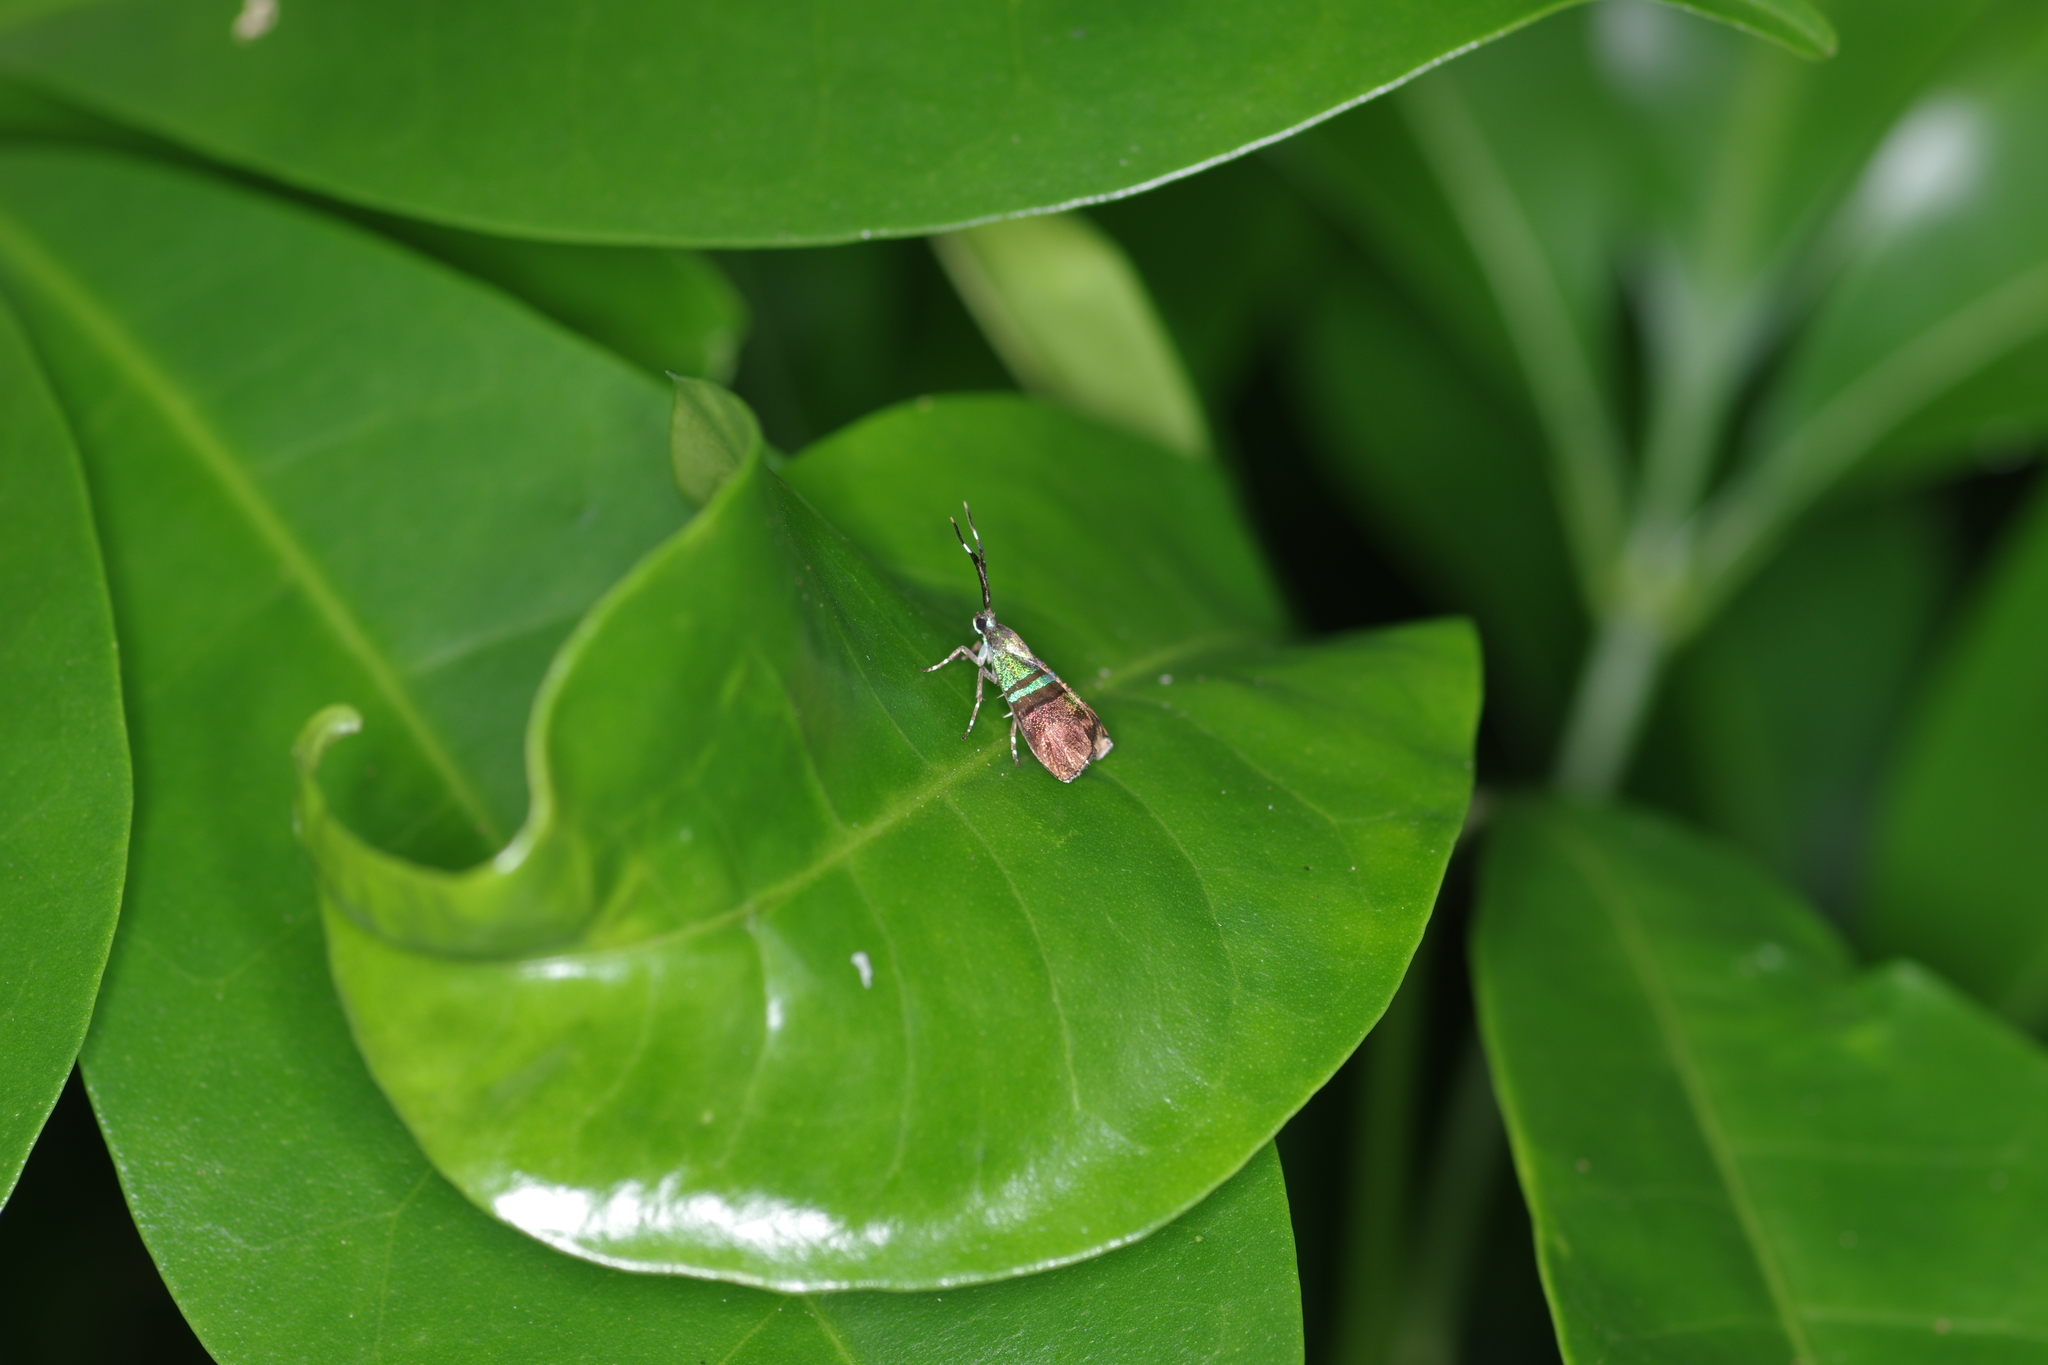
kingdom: Animalia
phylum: Arthropoda
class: Insecta
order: Lepidoptera
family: Choreutidae
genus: Saptha
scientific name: Saptha pretiosa
